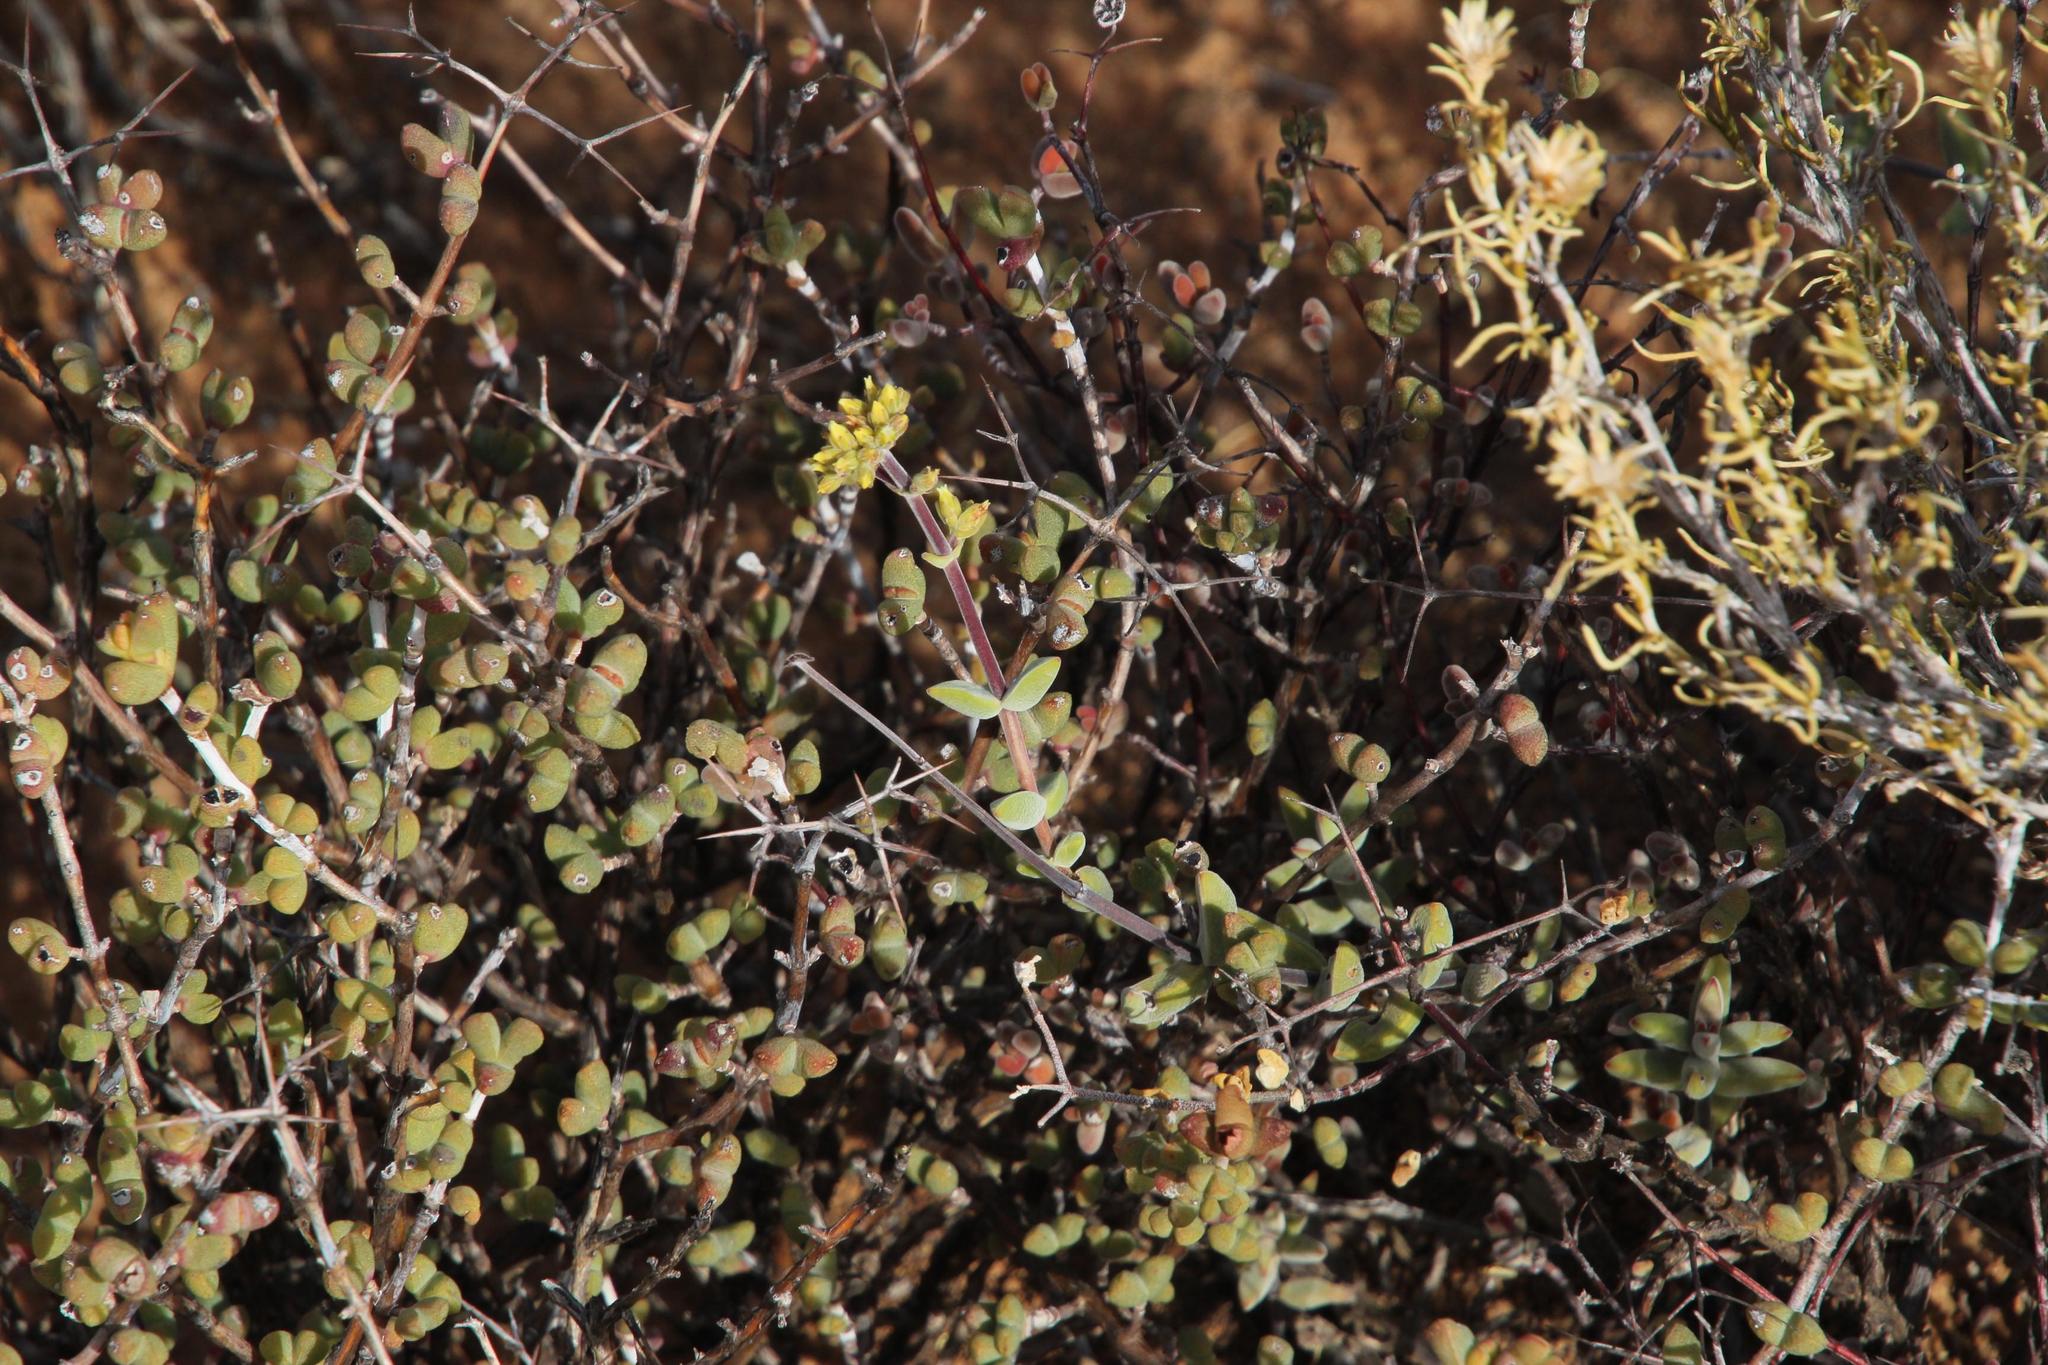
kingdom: Plantae
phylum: Tracheophyta
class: Magnoliopsida
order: Saxifragales
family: Crassulaceae
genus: Crassula
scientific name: Crassula subaphylla
